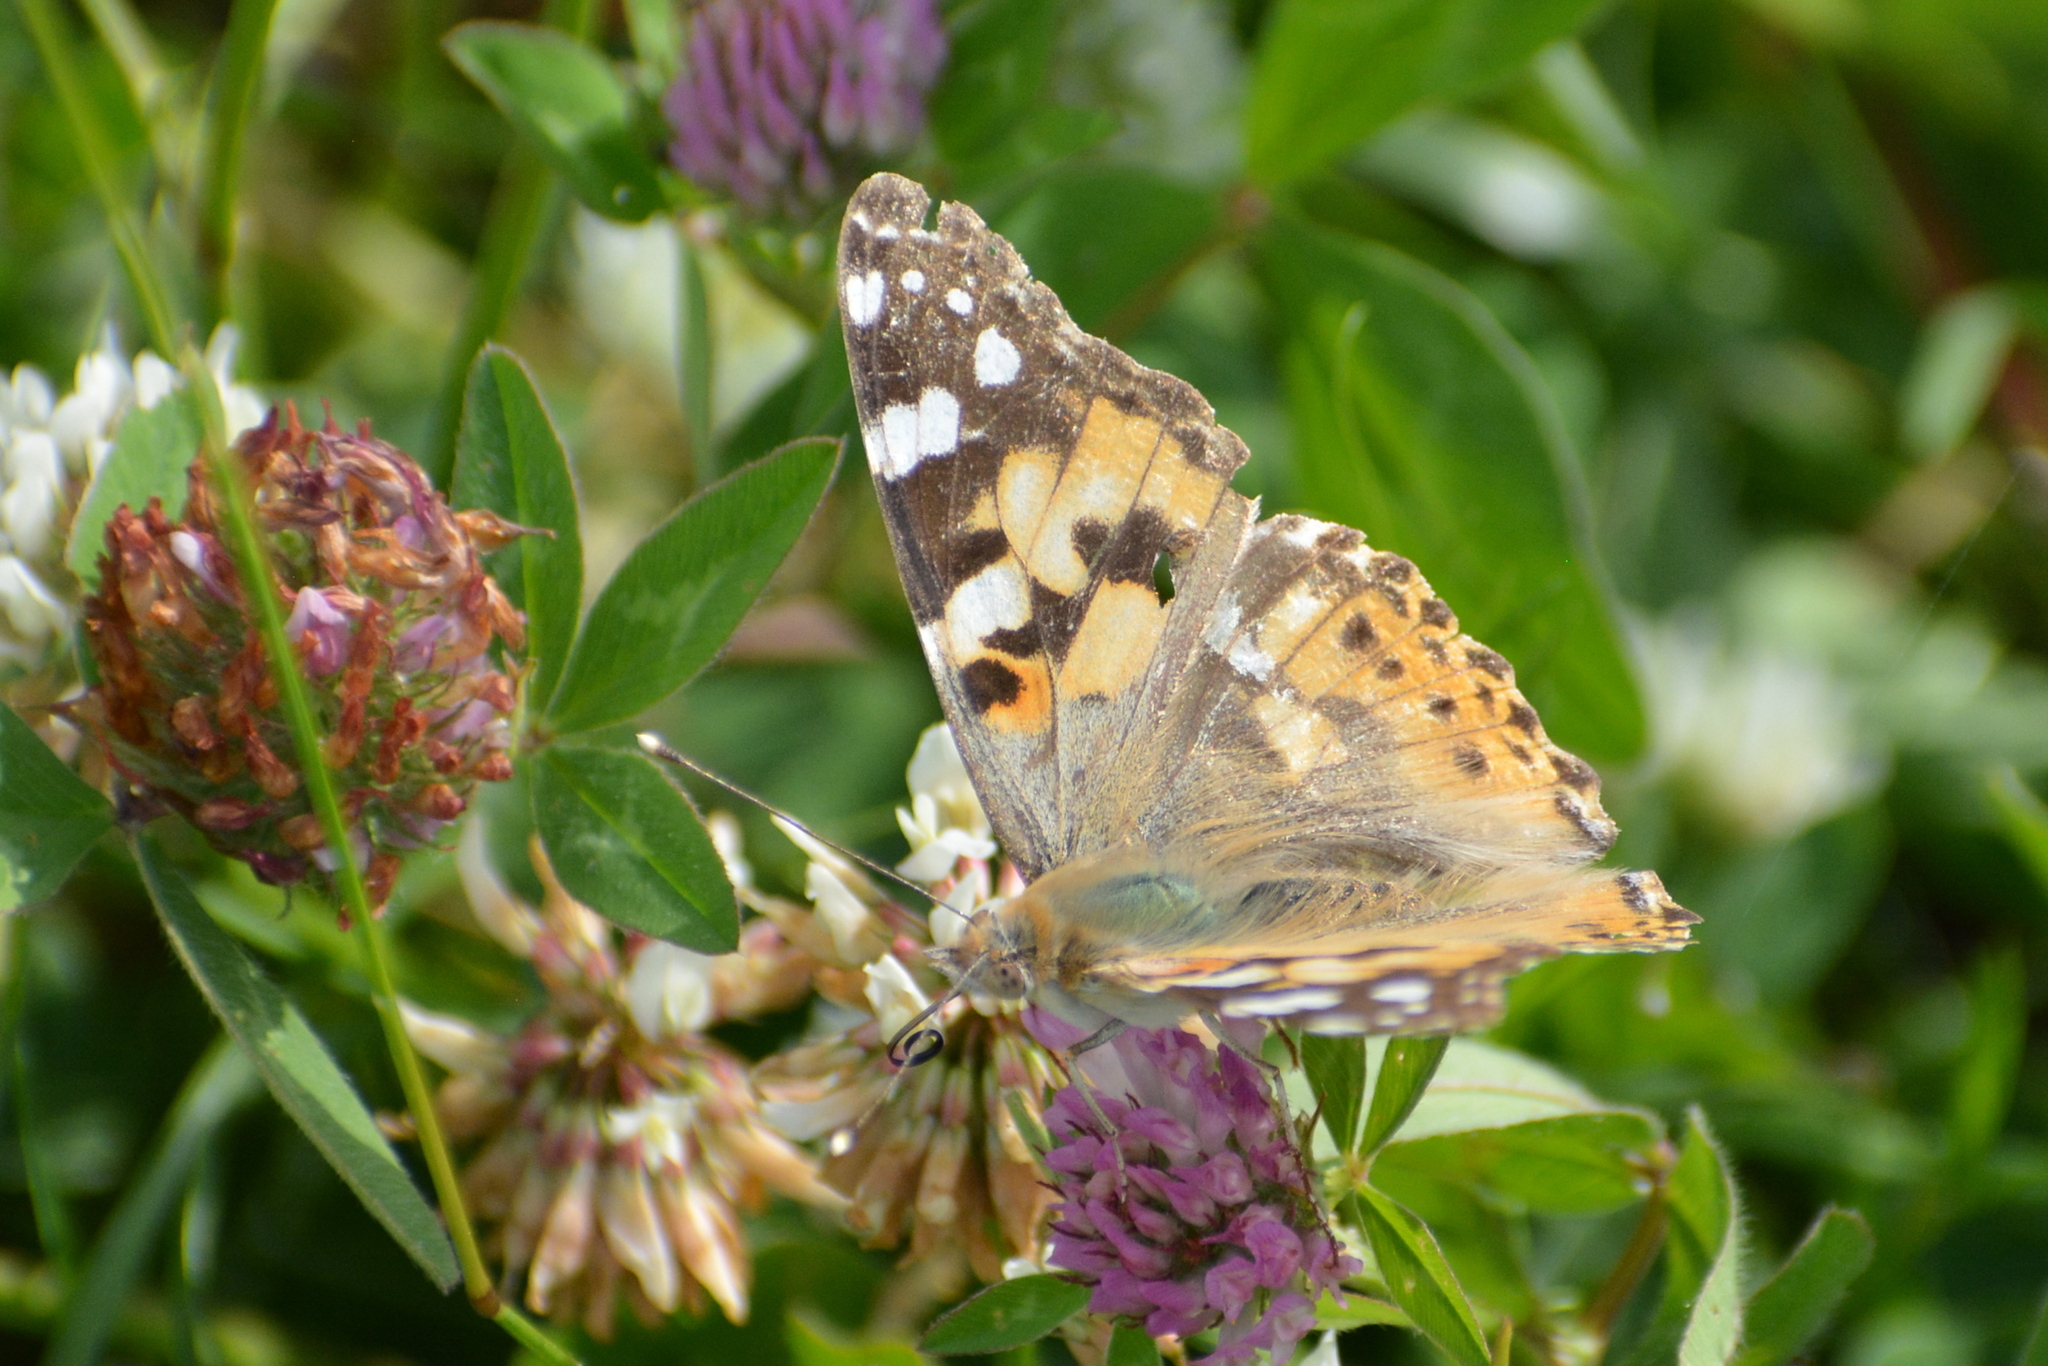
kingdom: Animalia
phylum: Arthropoda
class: Insecta
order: Lepidoptera
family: Nymphalidae
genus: Vanessa
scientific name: Vanessa cardui
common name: Painted lady
